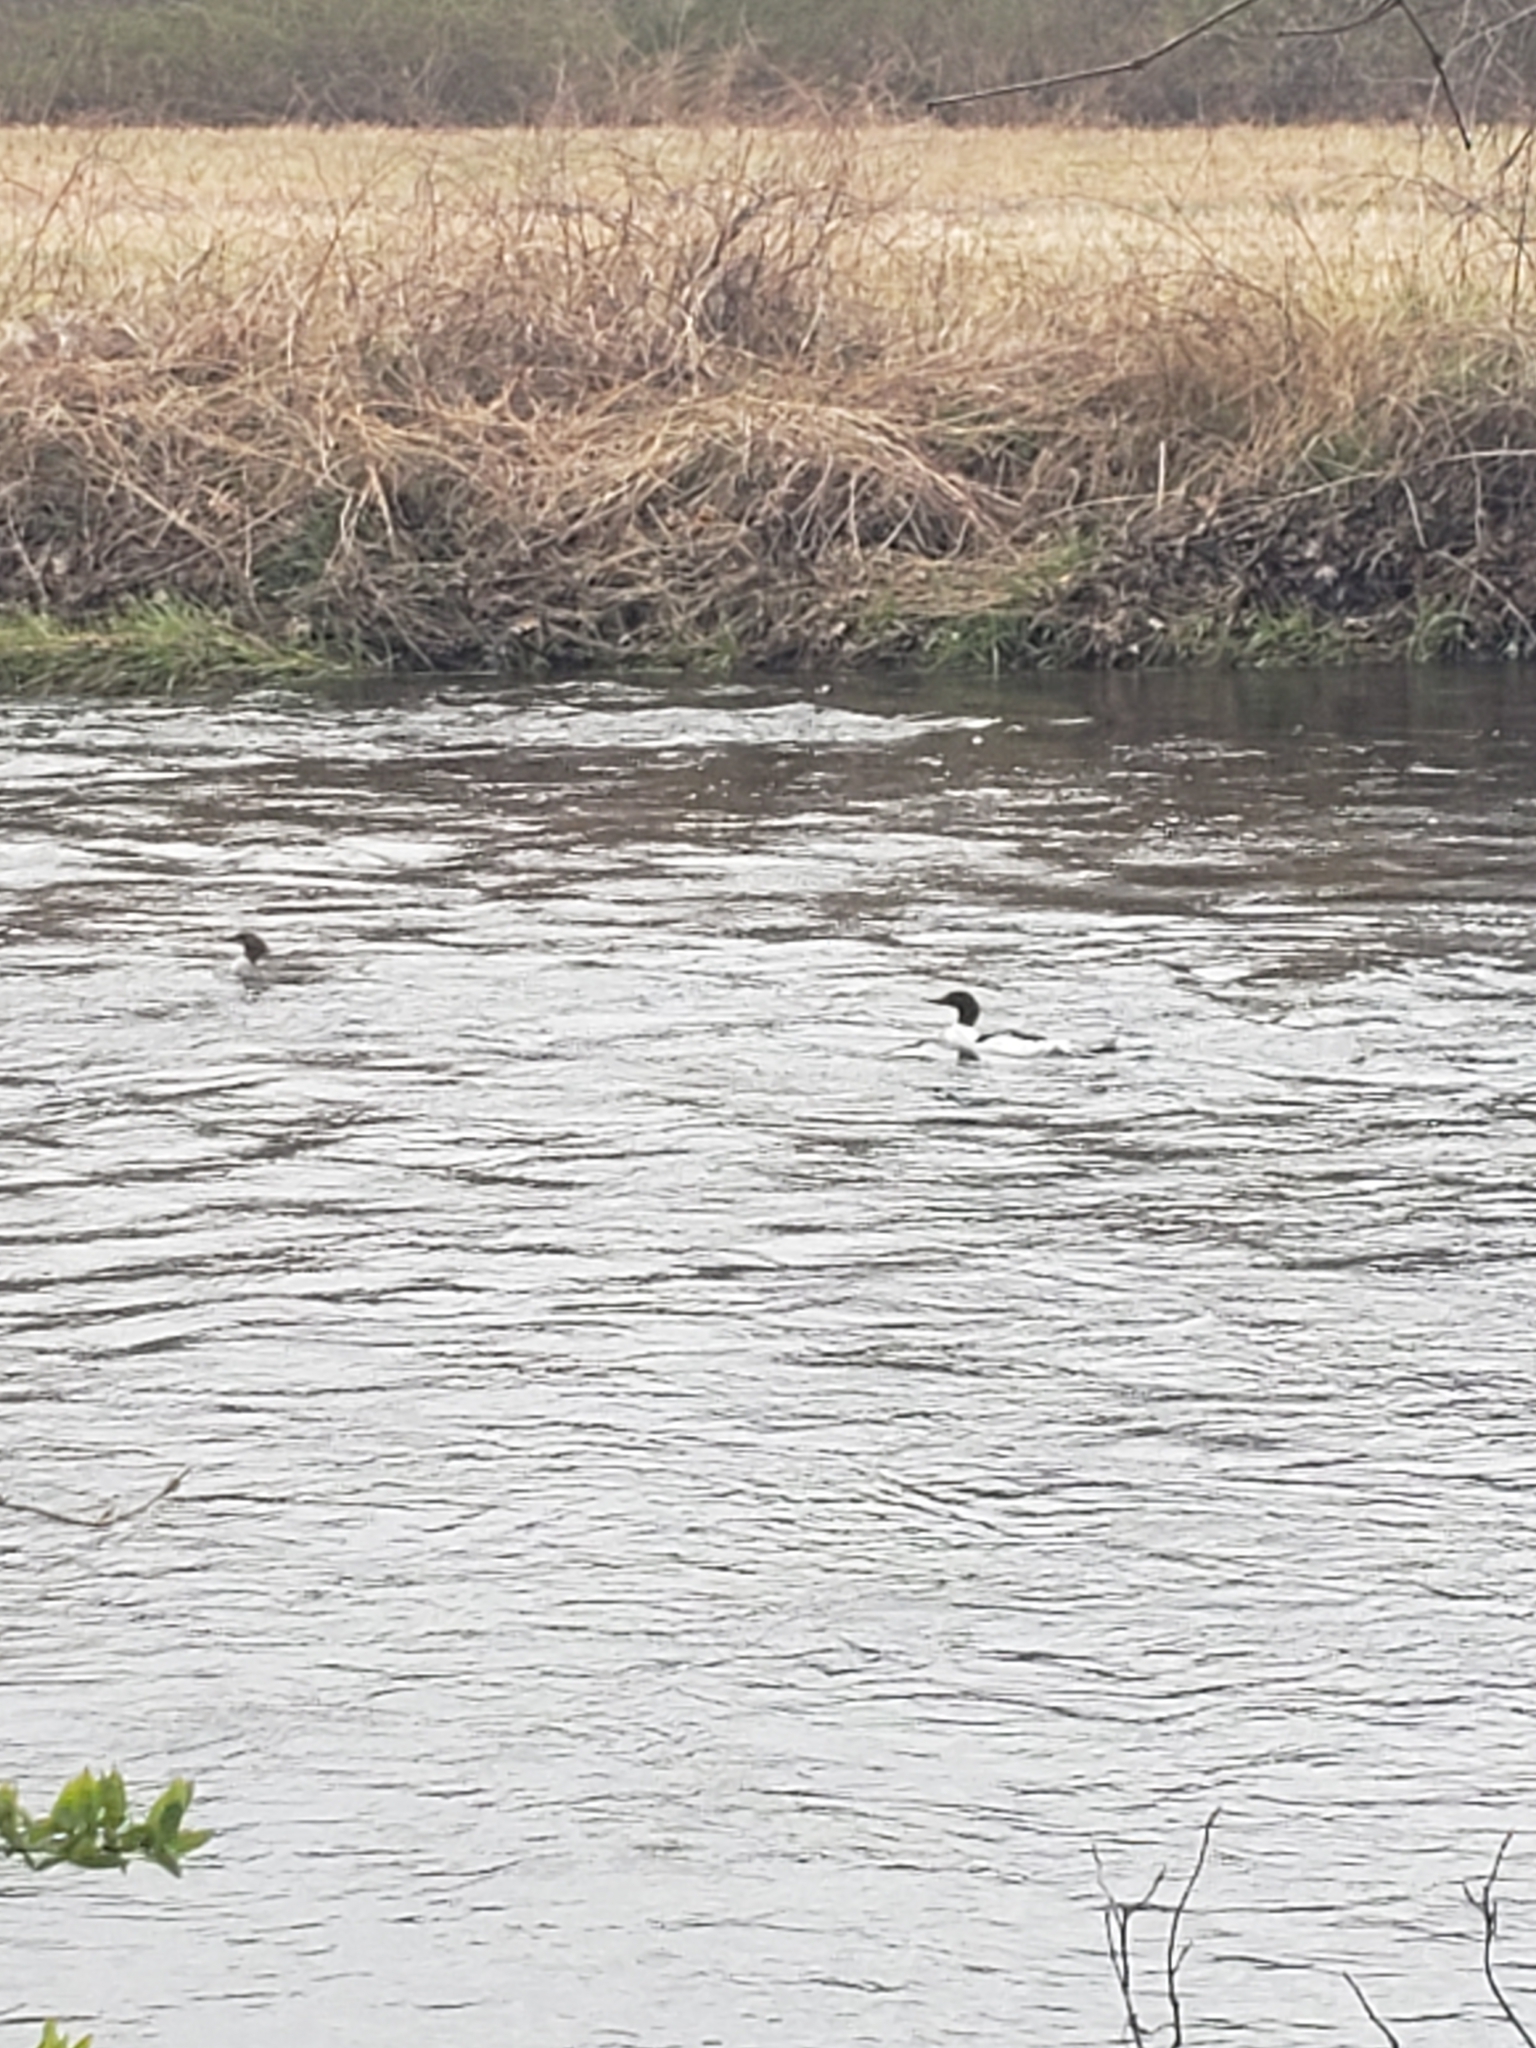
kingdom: Animalia
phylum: Chordata
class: Aves
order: Anseriformes
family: Anatidae
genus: Mergus
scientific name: Mergus merganser
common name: Common merganser
